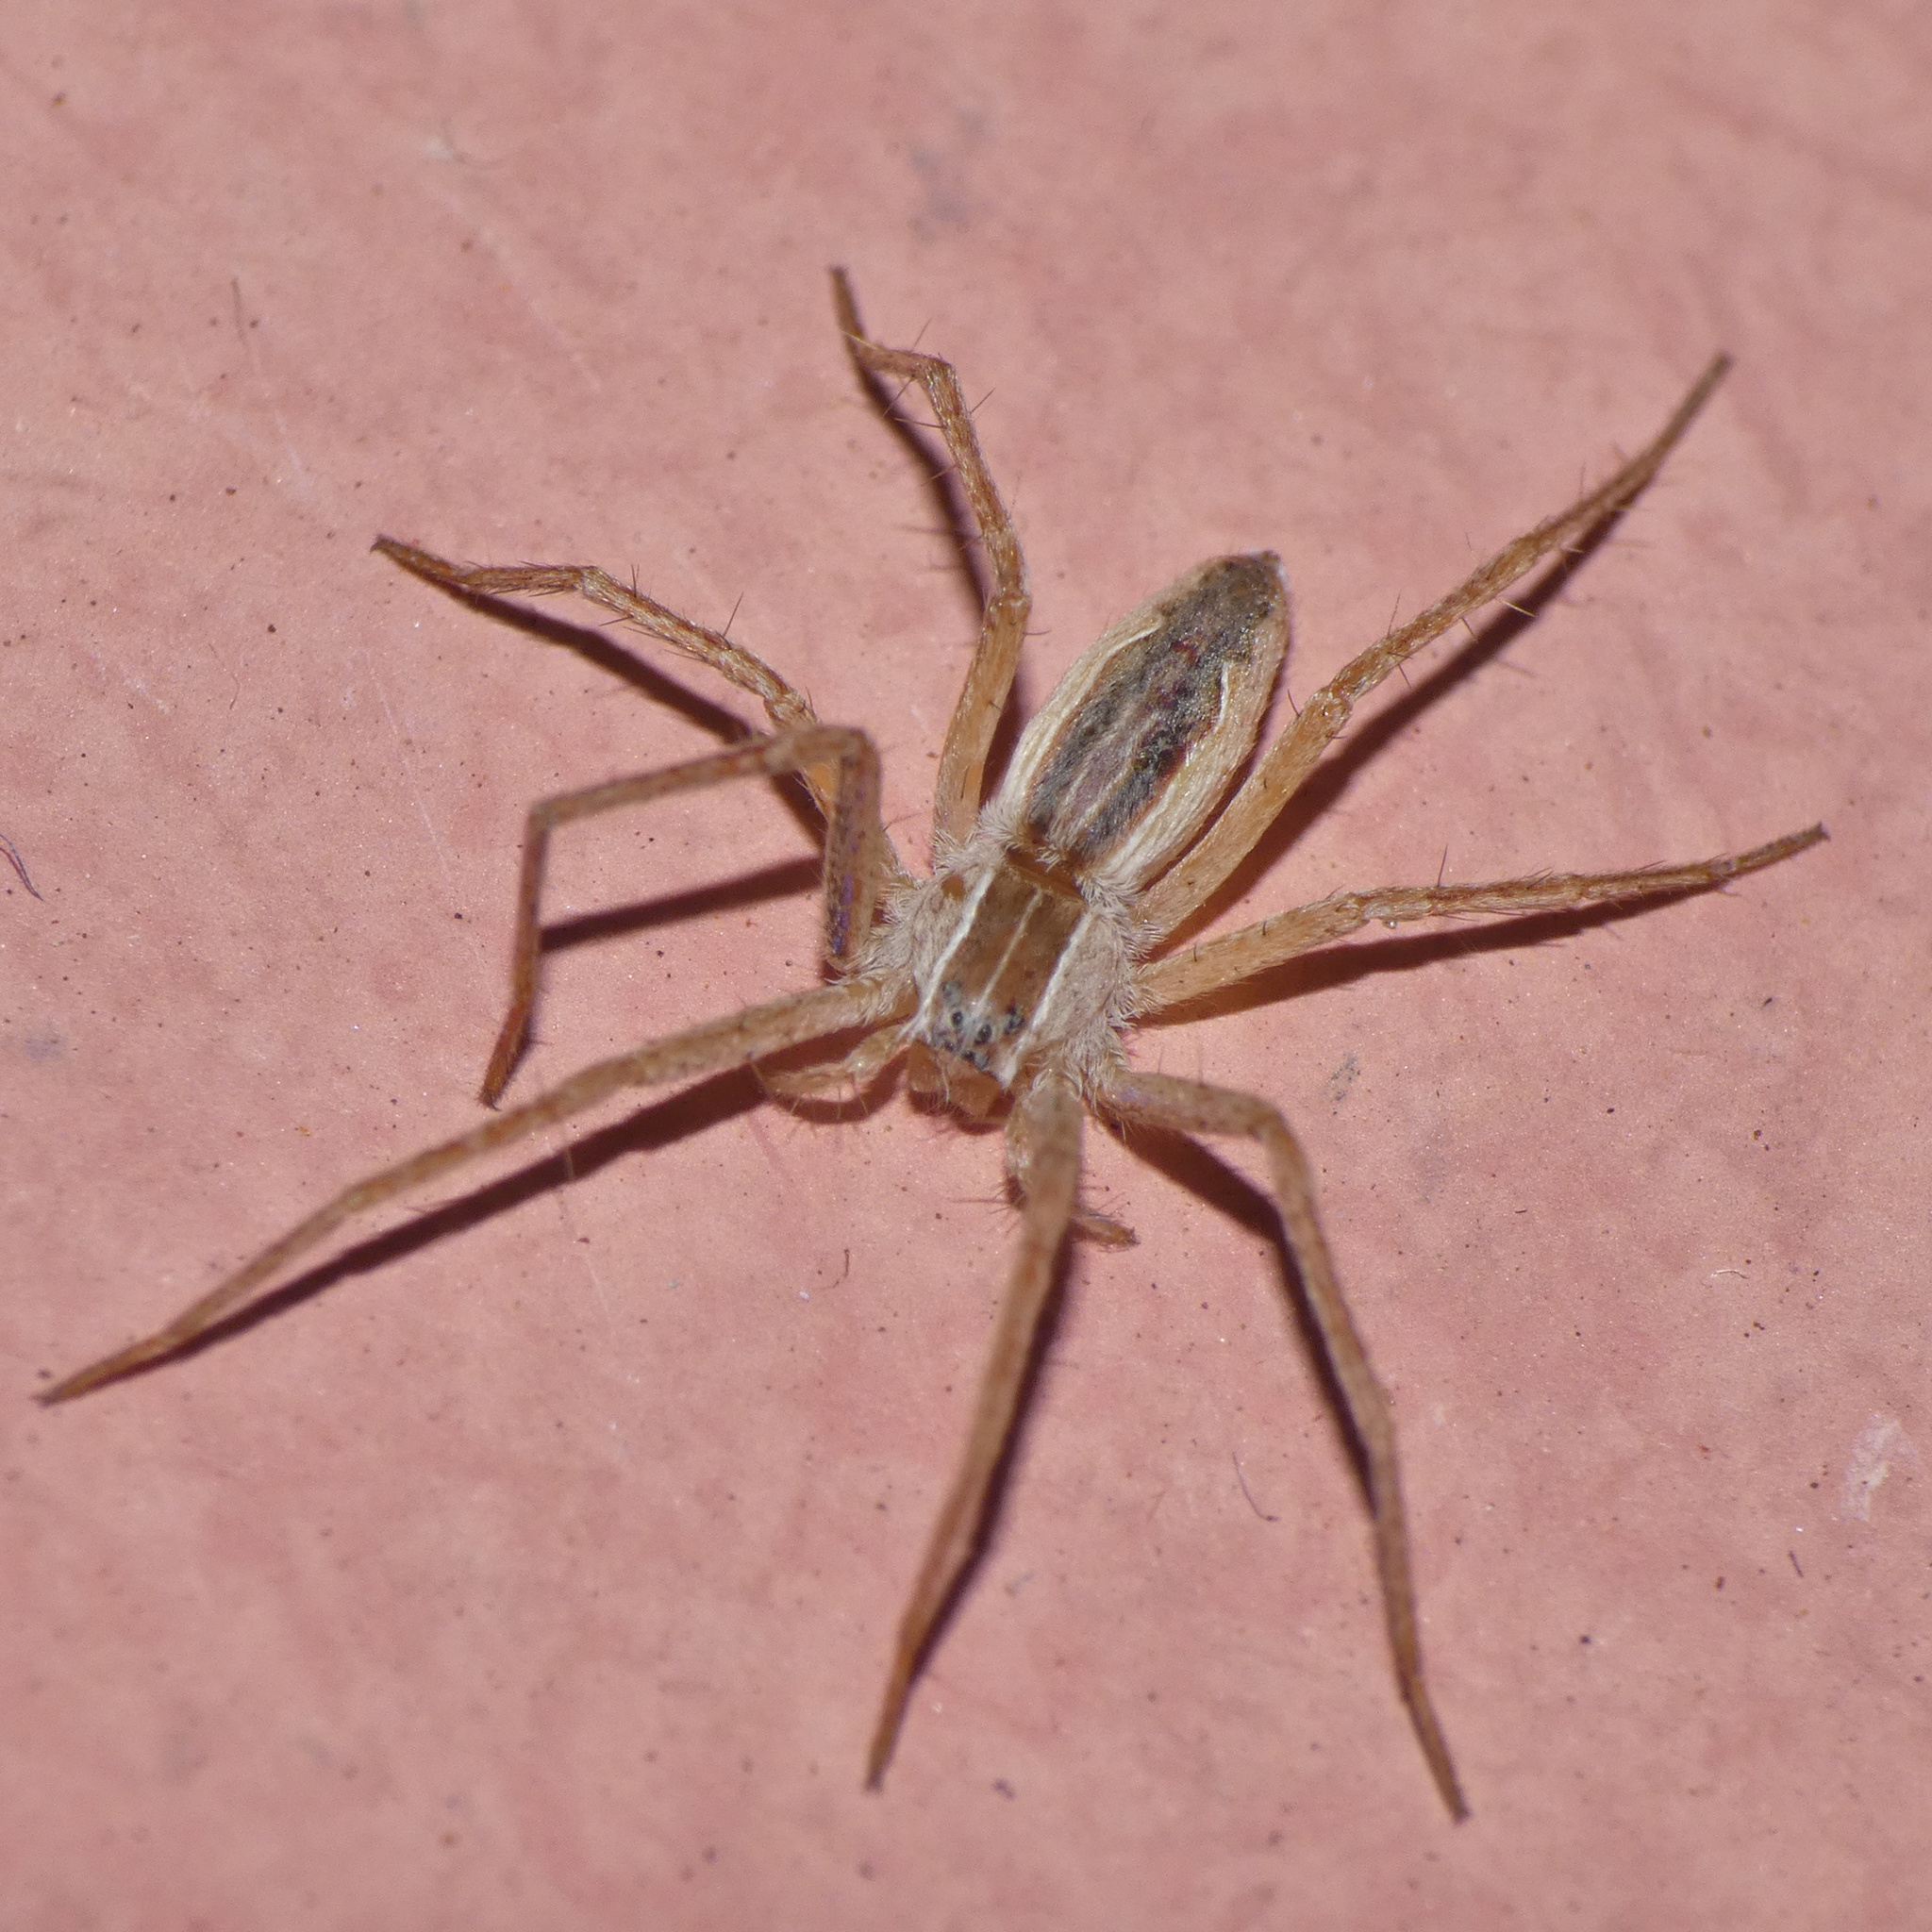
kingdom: Animalia
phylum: Arthropoda
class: Arachnida
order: Araneae
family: Pisauridae
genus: Afropisaura
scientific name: Afropisaura ducis
